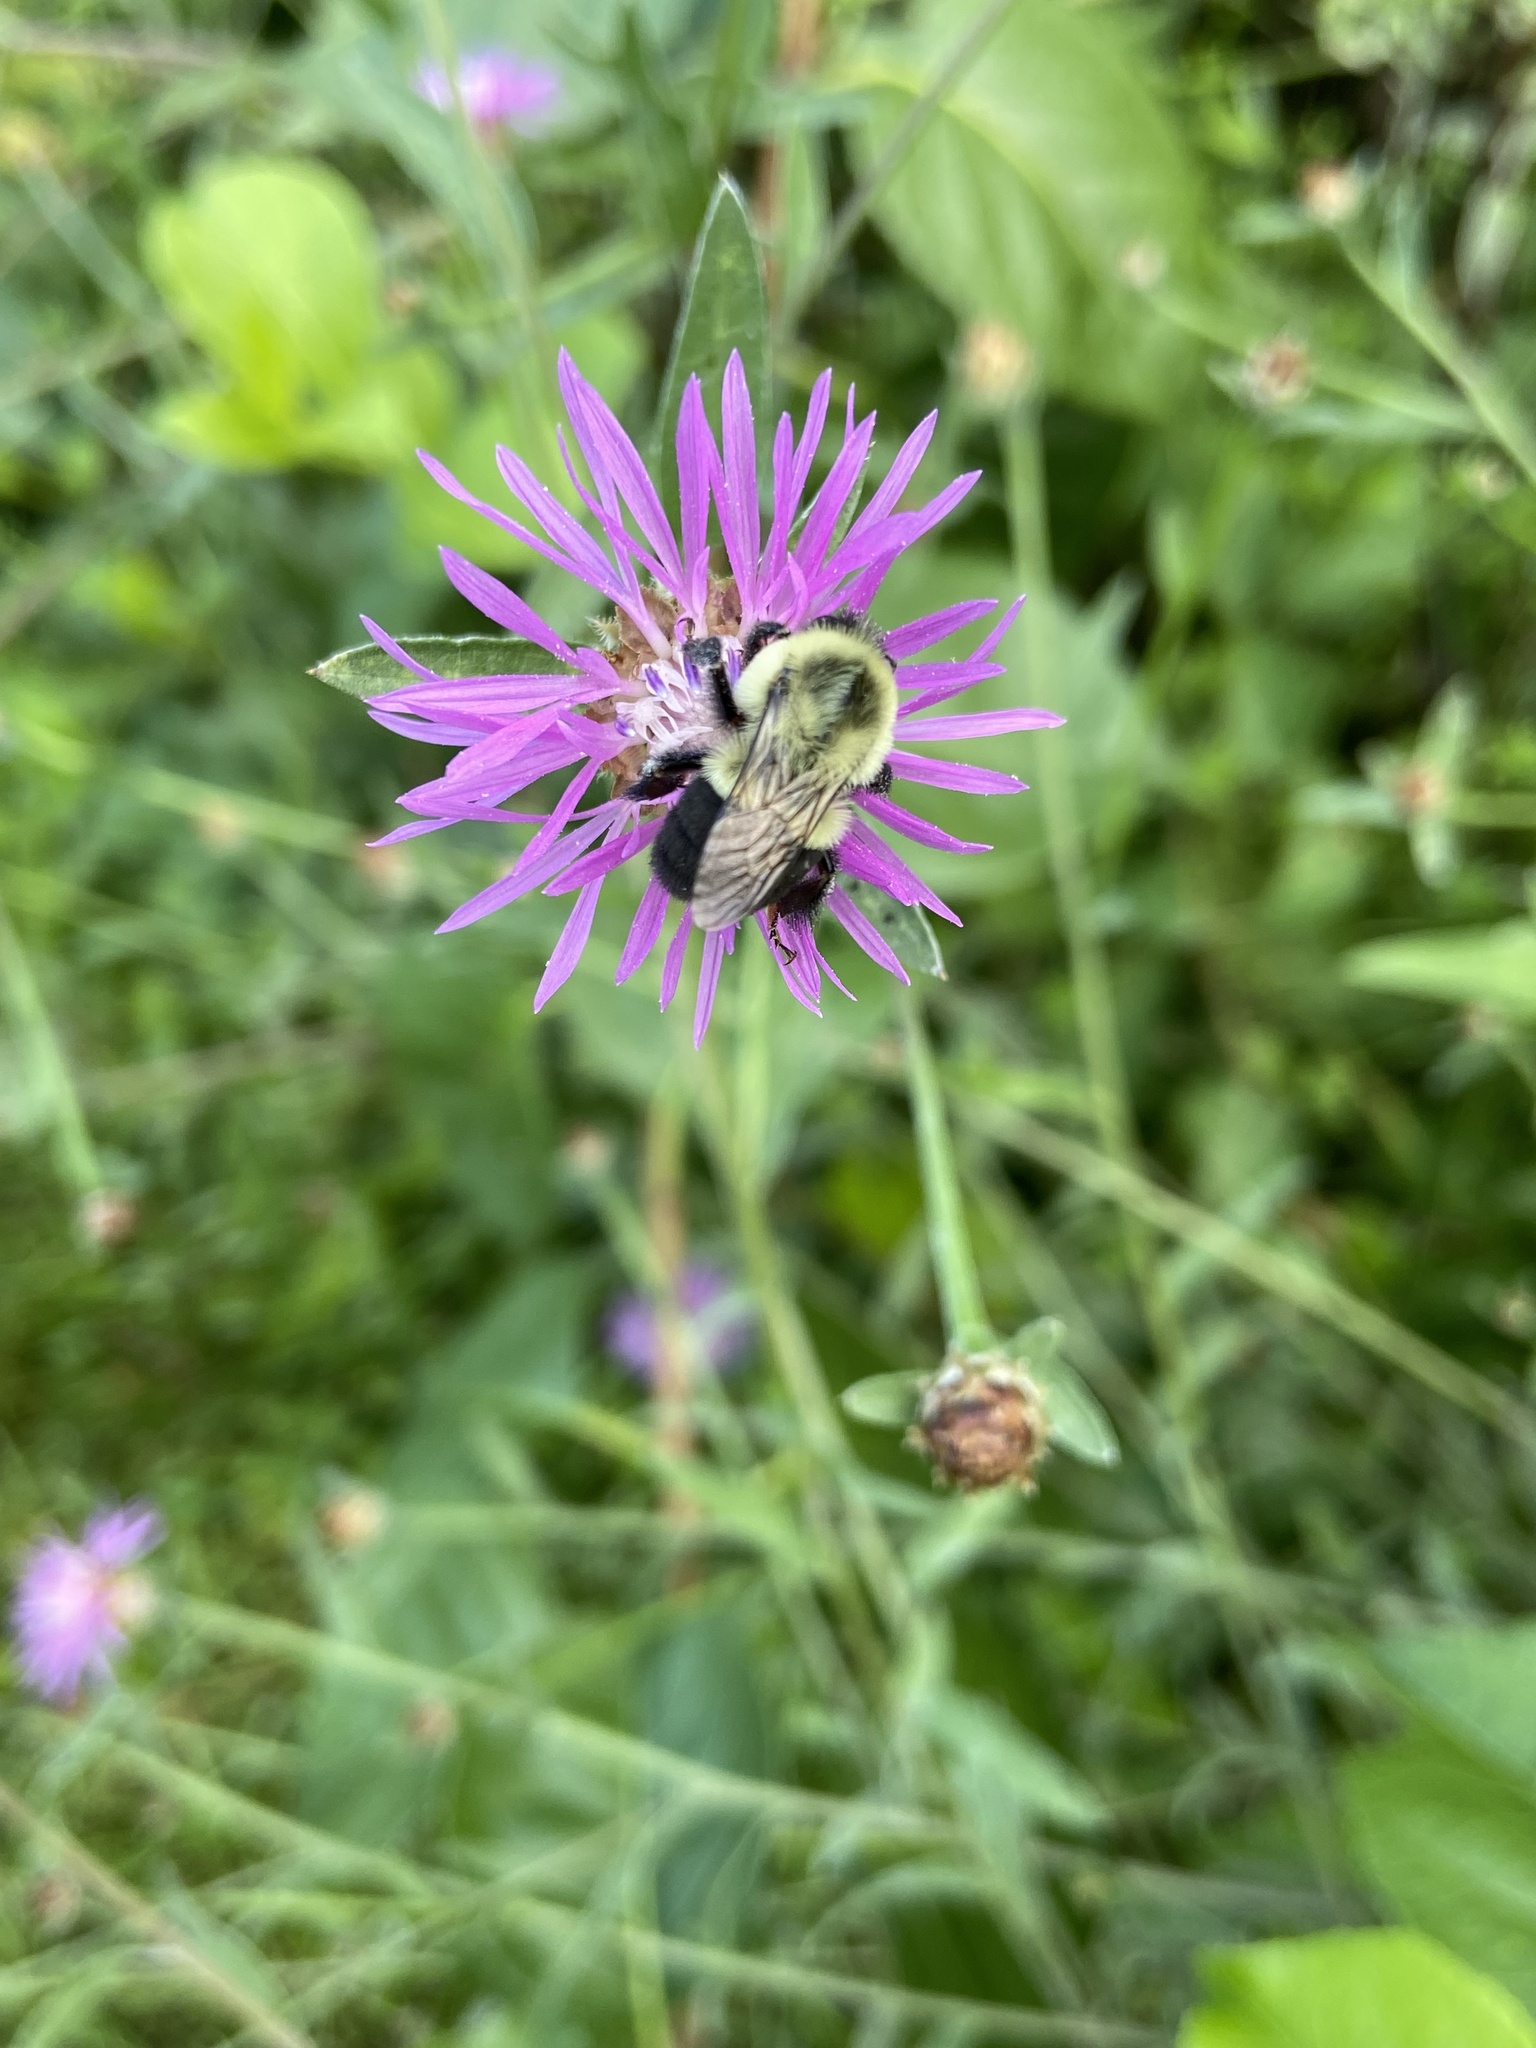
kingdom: Animalia
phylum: Arthropoda
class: Insecta
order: Hymenoptera
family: Apidae
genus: Bombus
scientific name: Bombus impatiens
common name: Common eastern bumble bee
